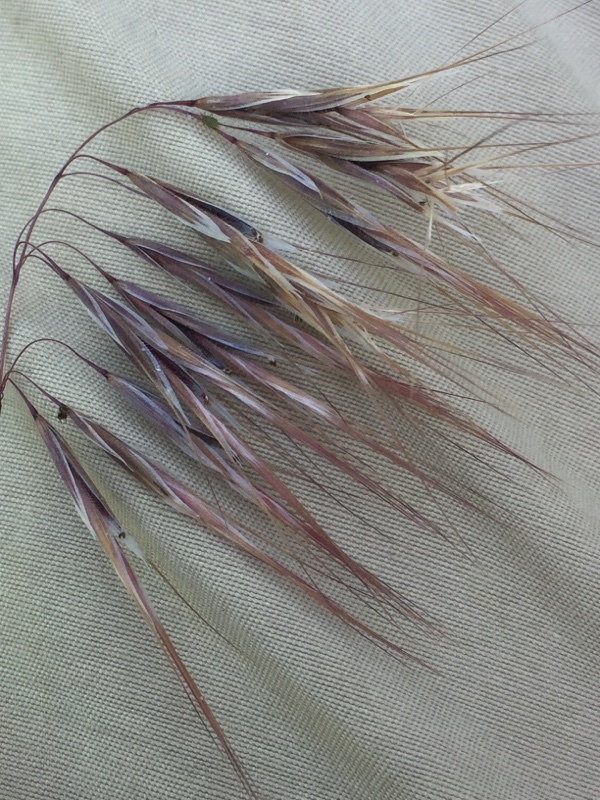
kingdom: Plantae
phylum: Tracheophyta
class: Liliopsida
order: Poales
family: Poaceae
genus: Bromus
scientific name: Bromus tectorum
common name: Cheatgrass
